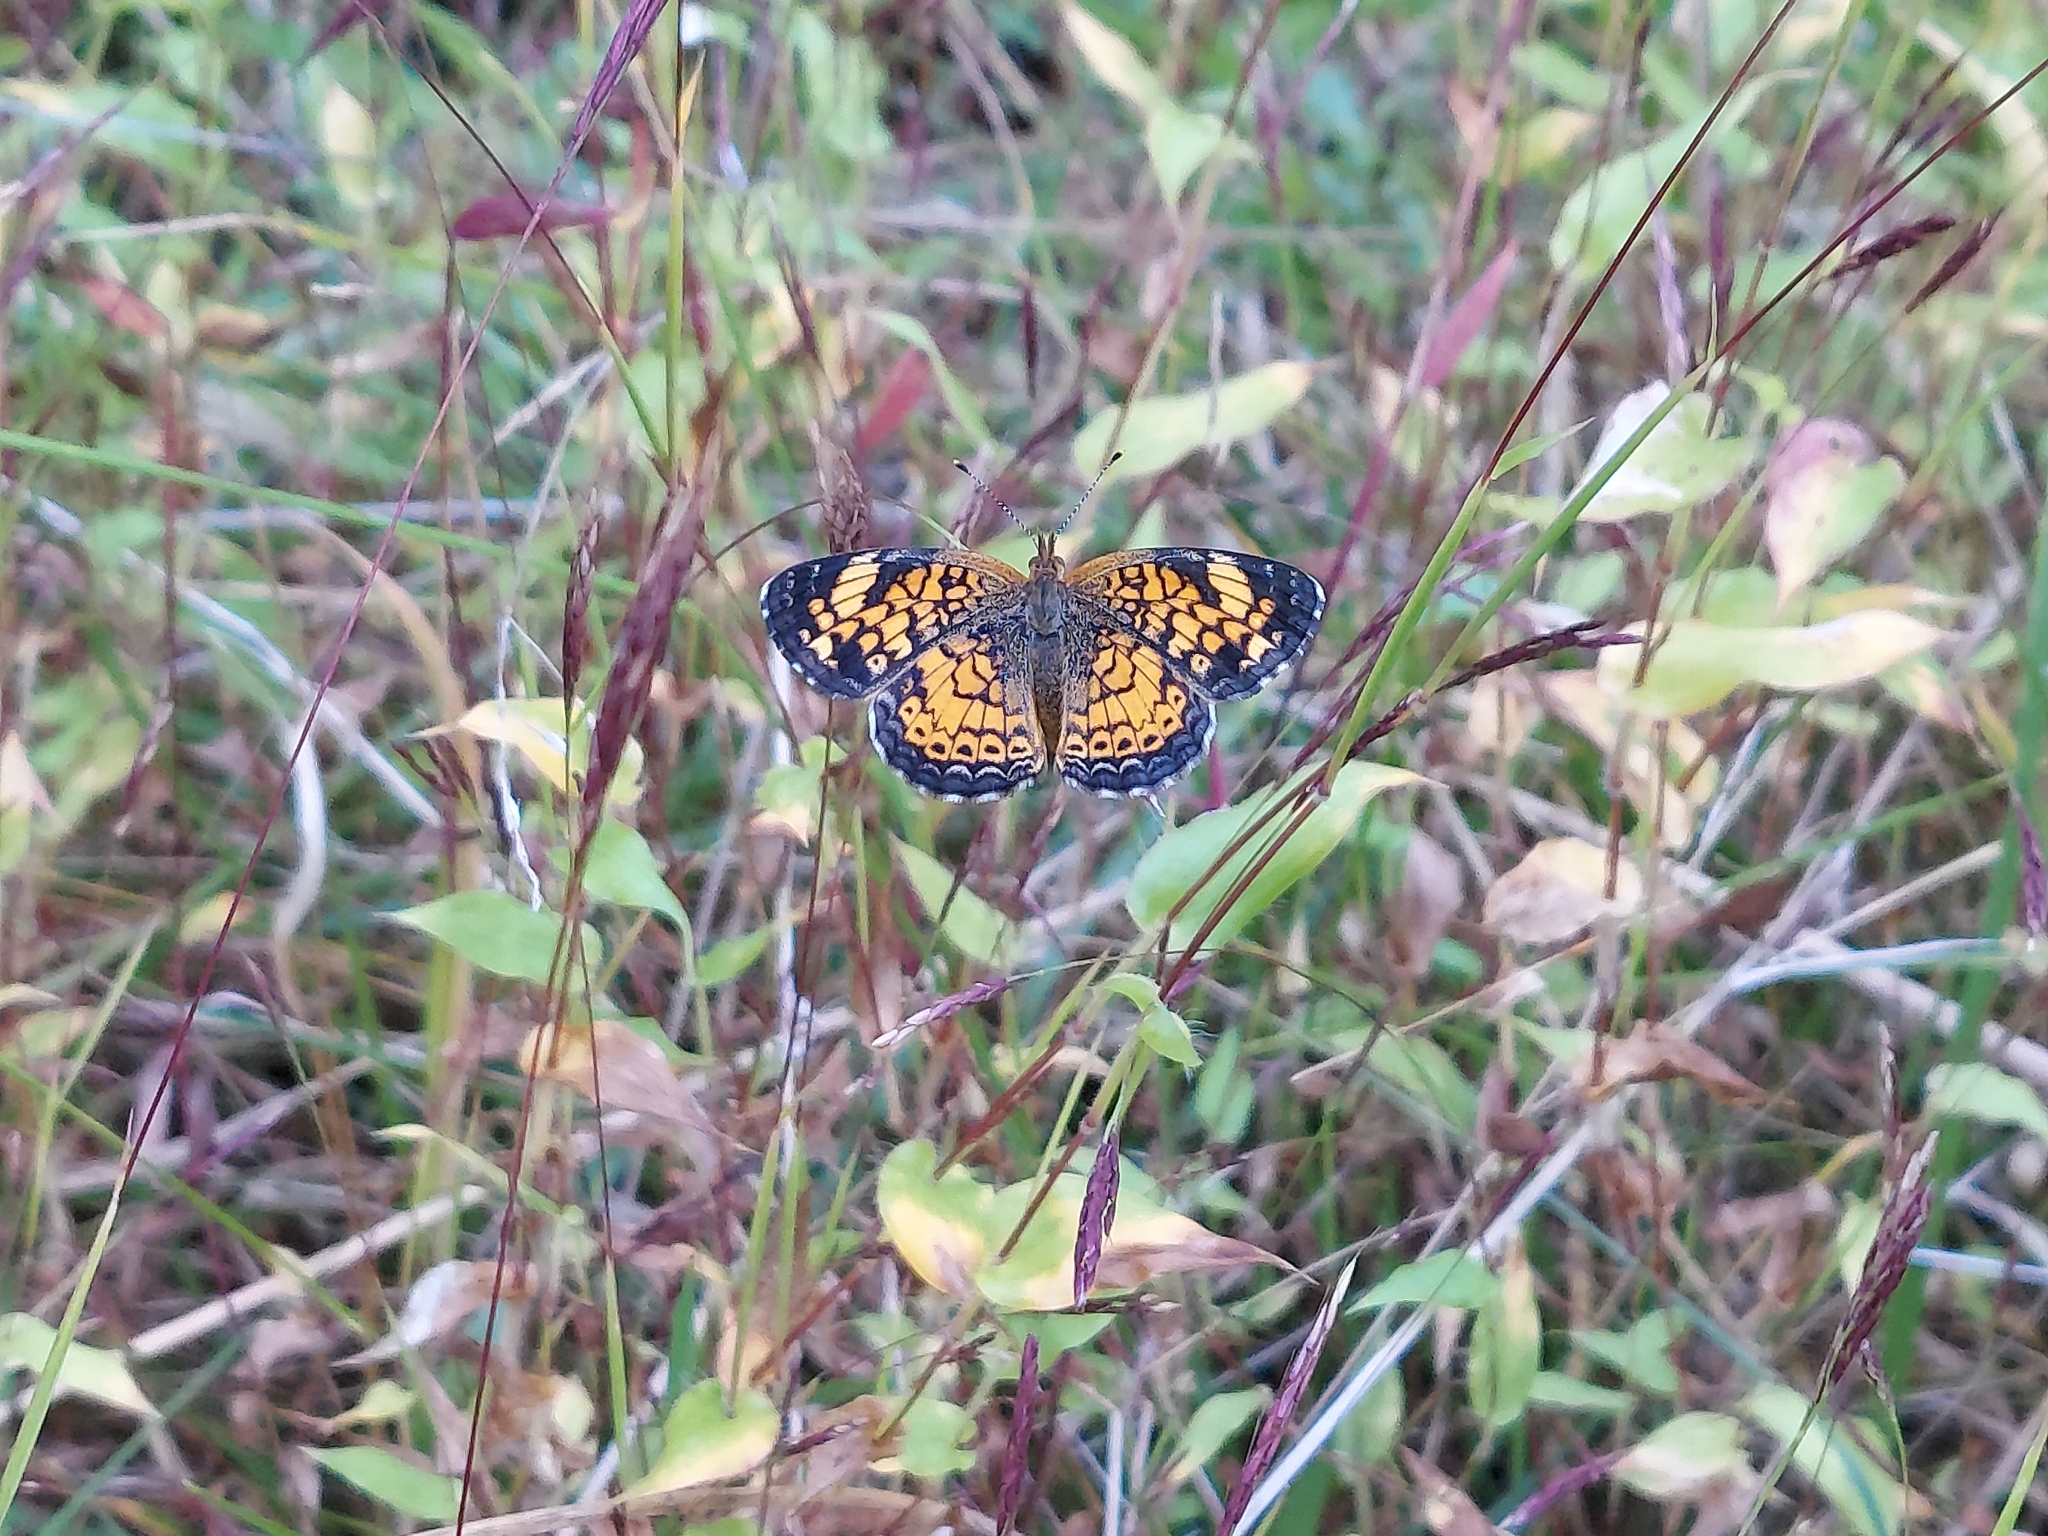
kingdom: Animalia
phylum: Arthropoda
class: Insecta
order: Lepidoptera
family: Nymphalidae
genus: Phyciodes
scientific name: Phyciodes tharos
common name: Pearl crescent
